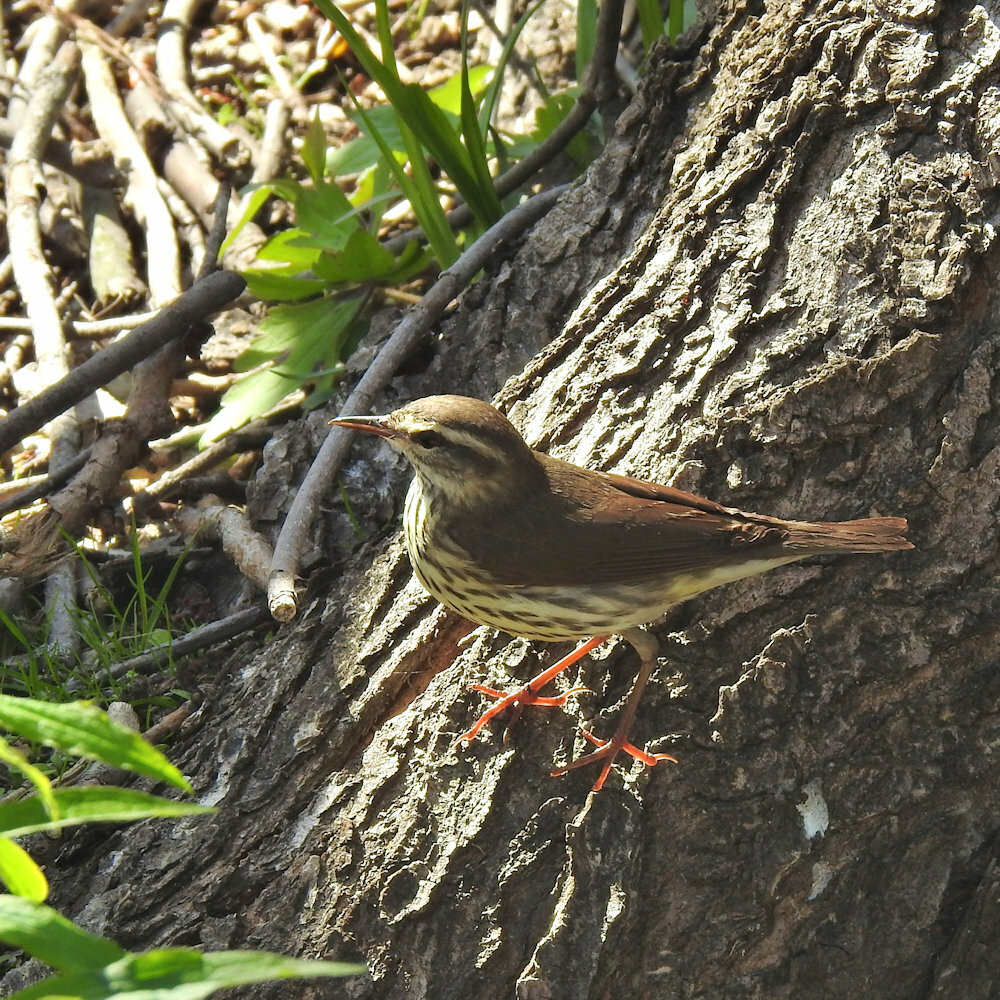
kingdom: Animalia
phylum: Chordata
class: Aves
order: Passeriformes
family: Parulidae
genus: Parkesia
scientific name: Parkesia noveboracensis
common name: Northern waterthrush
